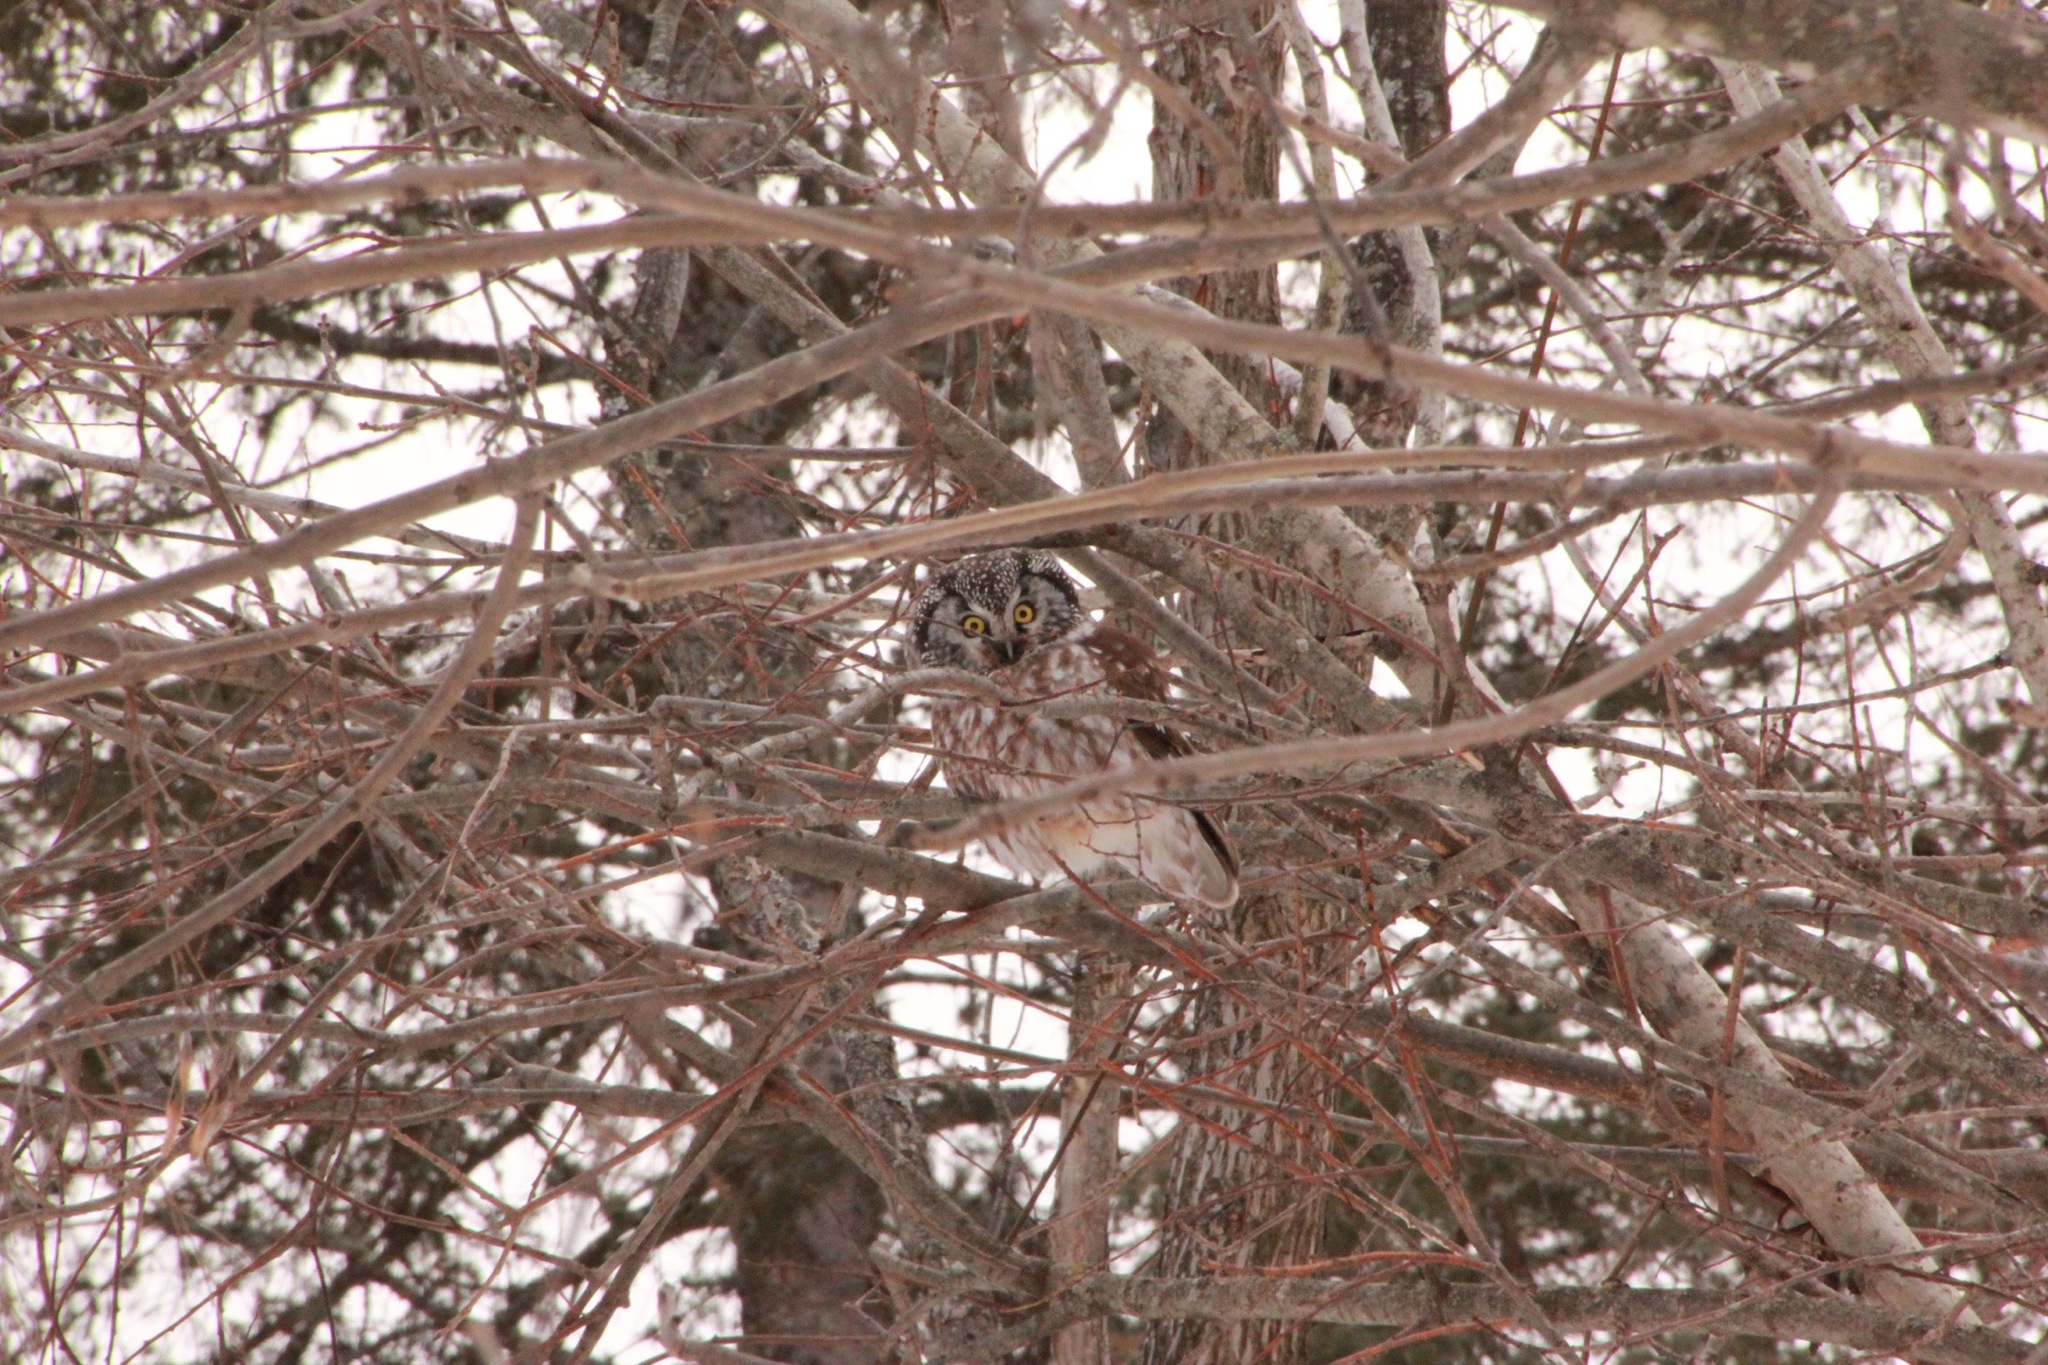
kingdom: Animalia
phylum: Chordata
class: Aves
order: Strigiformes
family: Strigidae
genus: Aegolius
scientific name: Aegolius funereus
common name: Boreal owl
